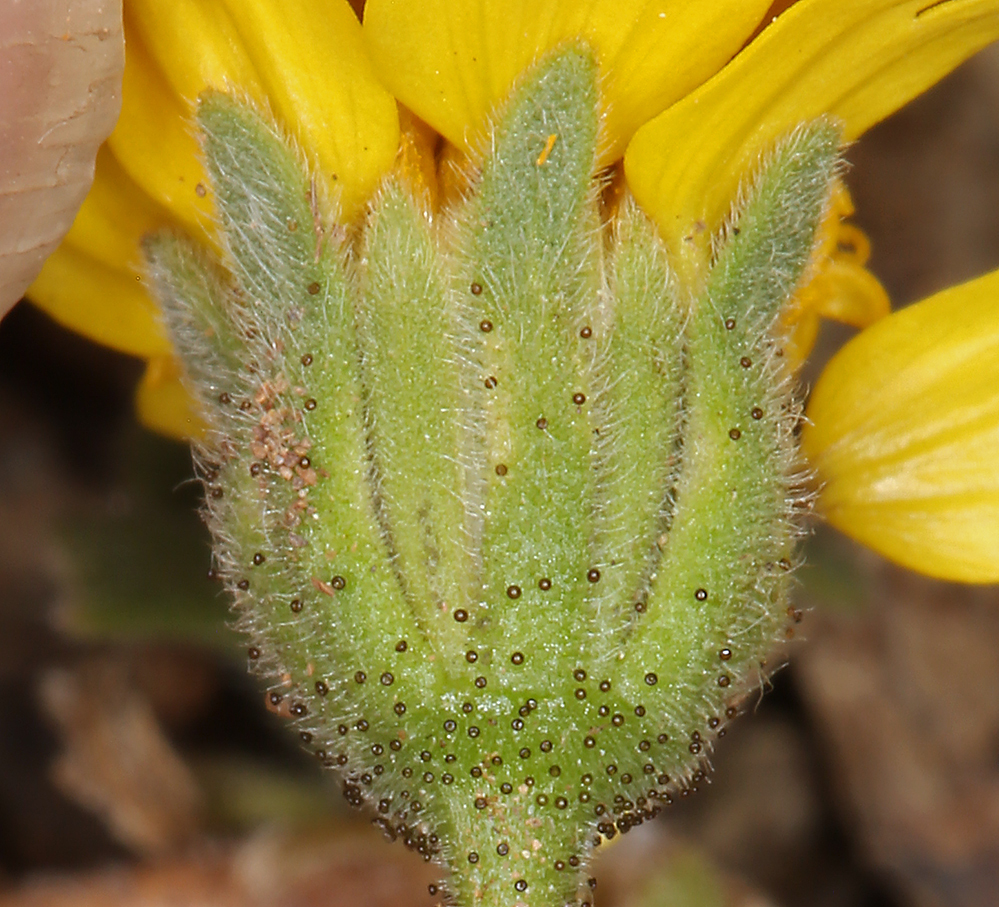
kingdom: Plantae
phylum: Tracheophyta
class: Magnoliopsida
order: Asterales
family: Asteraceae
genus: Layia
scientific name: Layia platyglossa
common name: Tidy-tips
